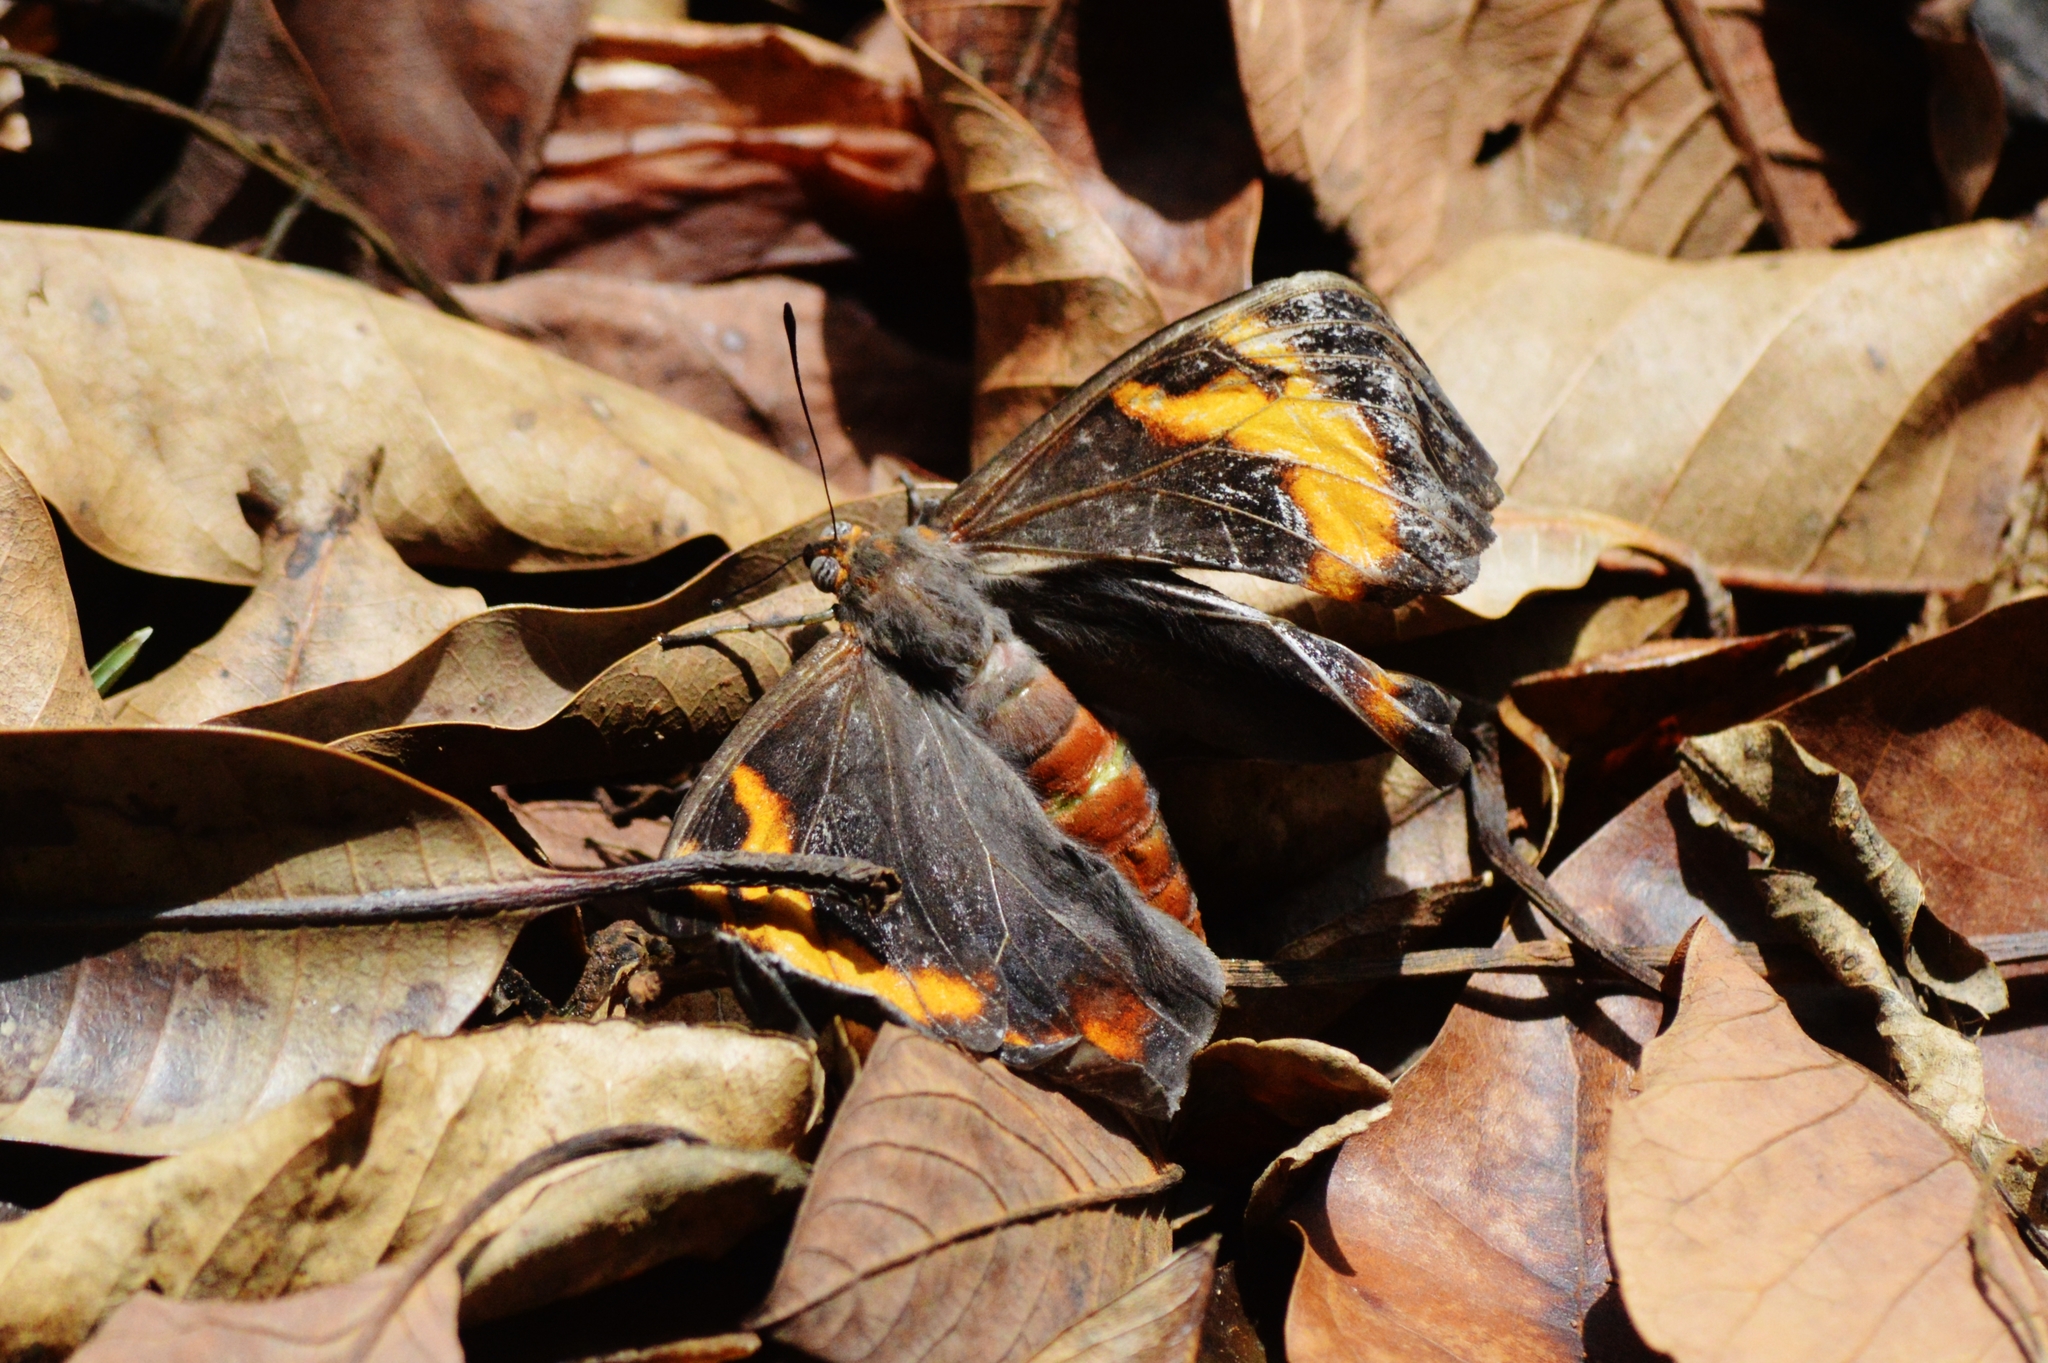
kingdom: Animalia
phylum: Arthropoda
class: Insecta
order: Lepidoptera
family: Nymphalidae
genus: Brassolis
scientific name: Brassolis sophorae
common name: Coconut caterpillar
